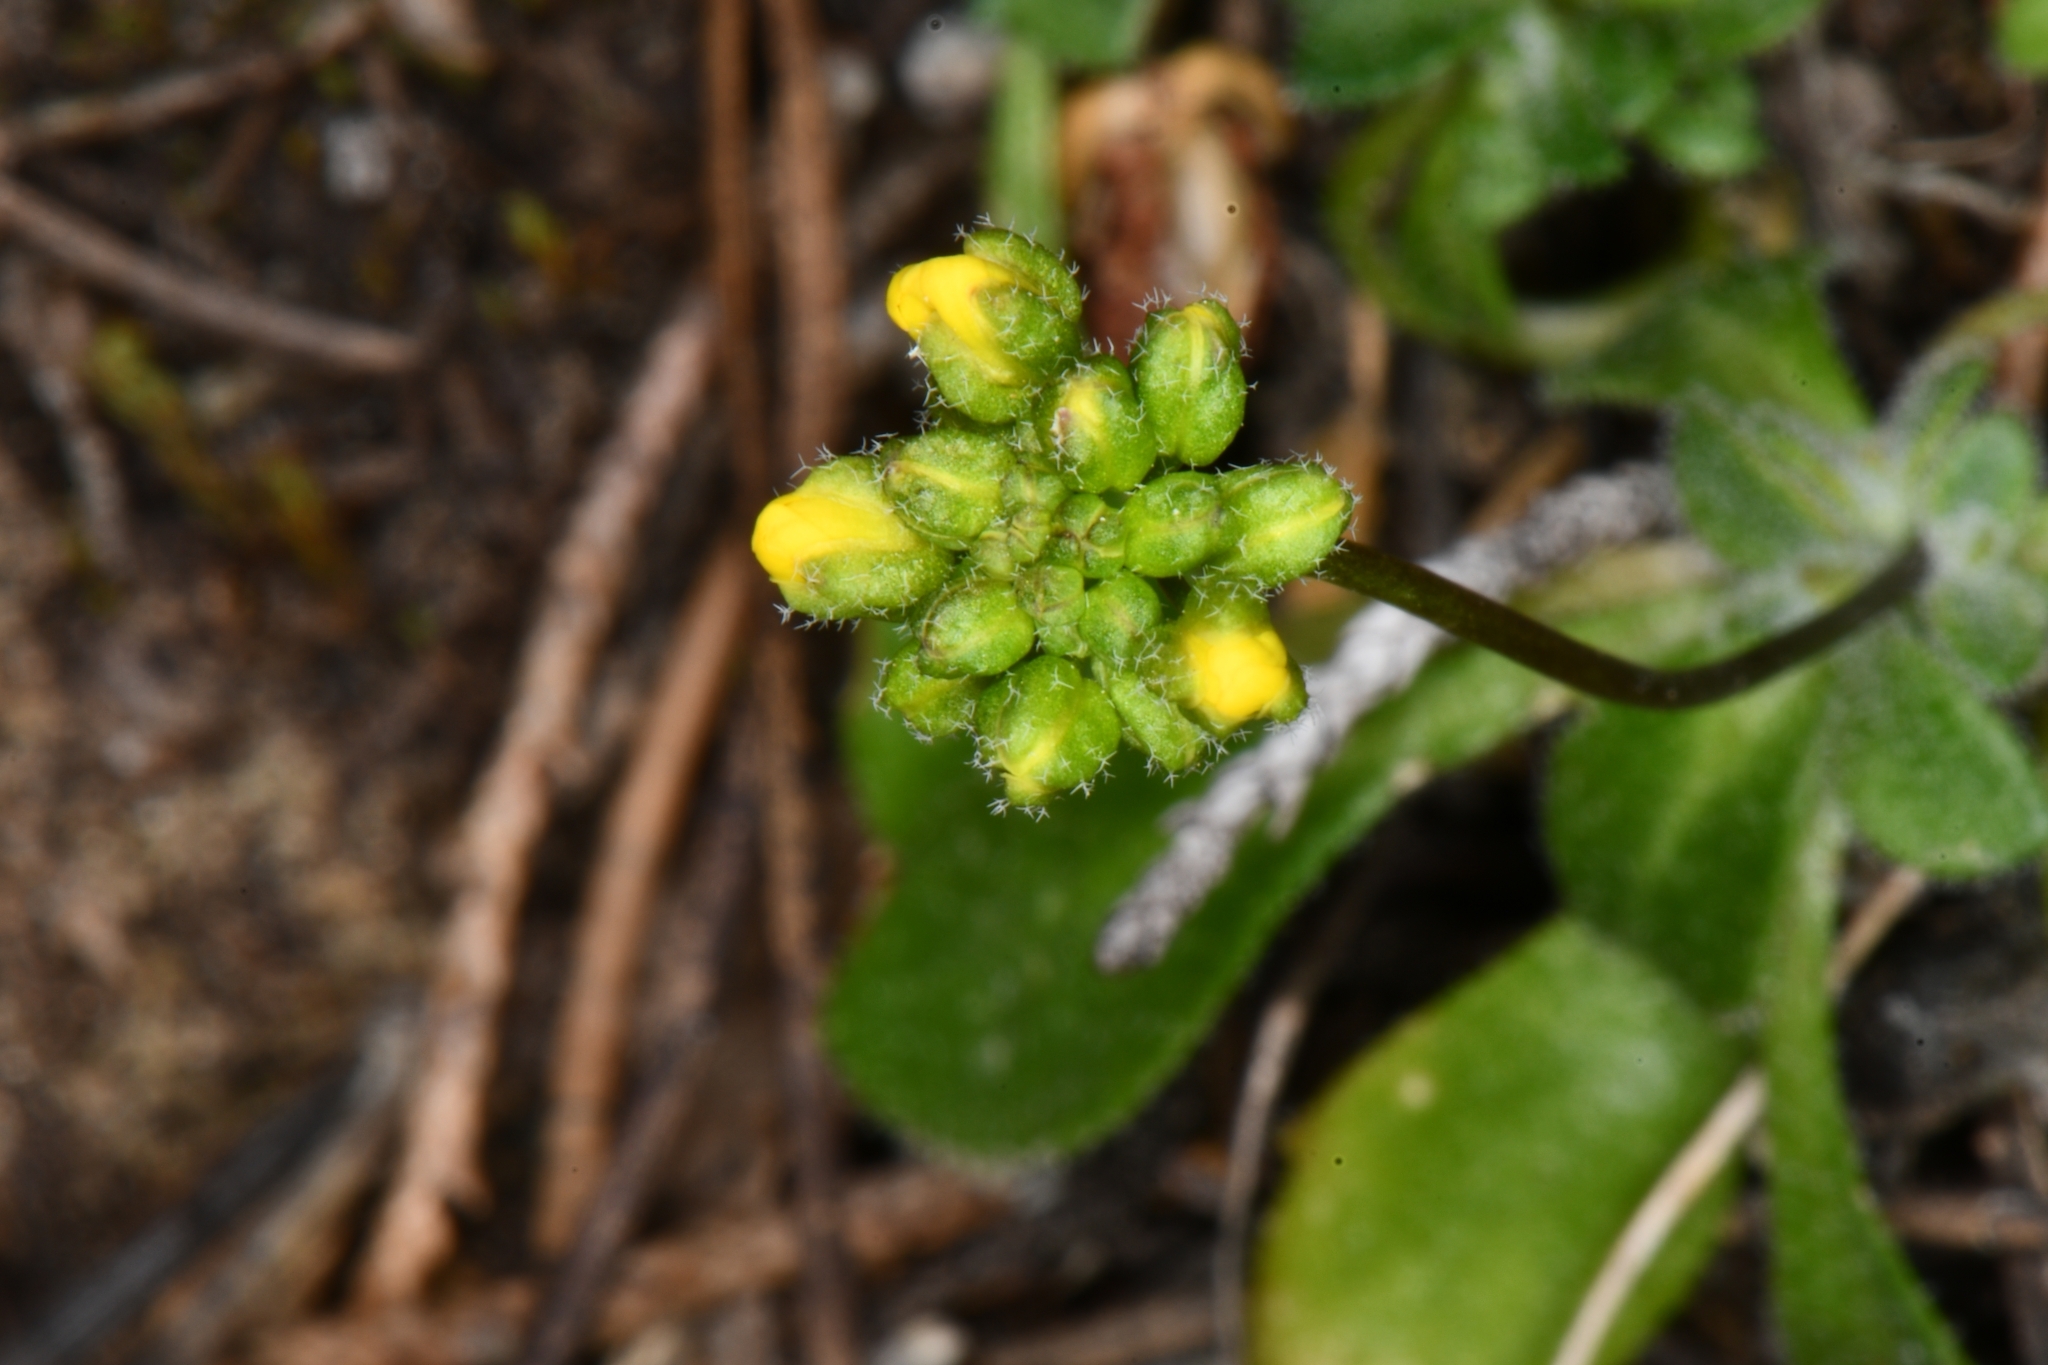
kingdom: Plantae
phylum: Tracheophyta
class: Magnoliopsida
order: Brassicales
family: Brassicaceae
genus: Draba
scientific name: Draba zionensis
